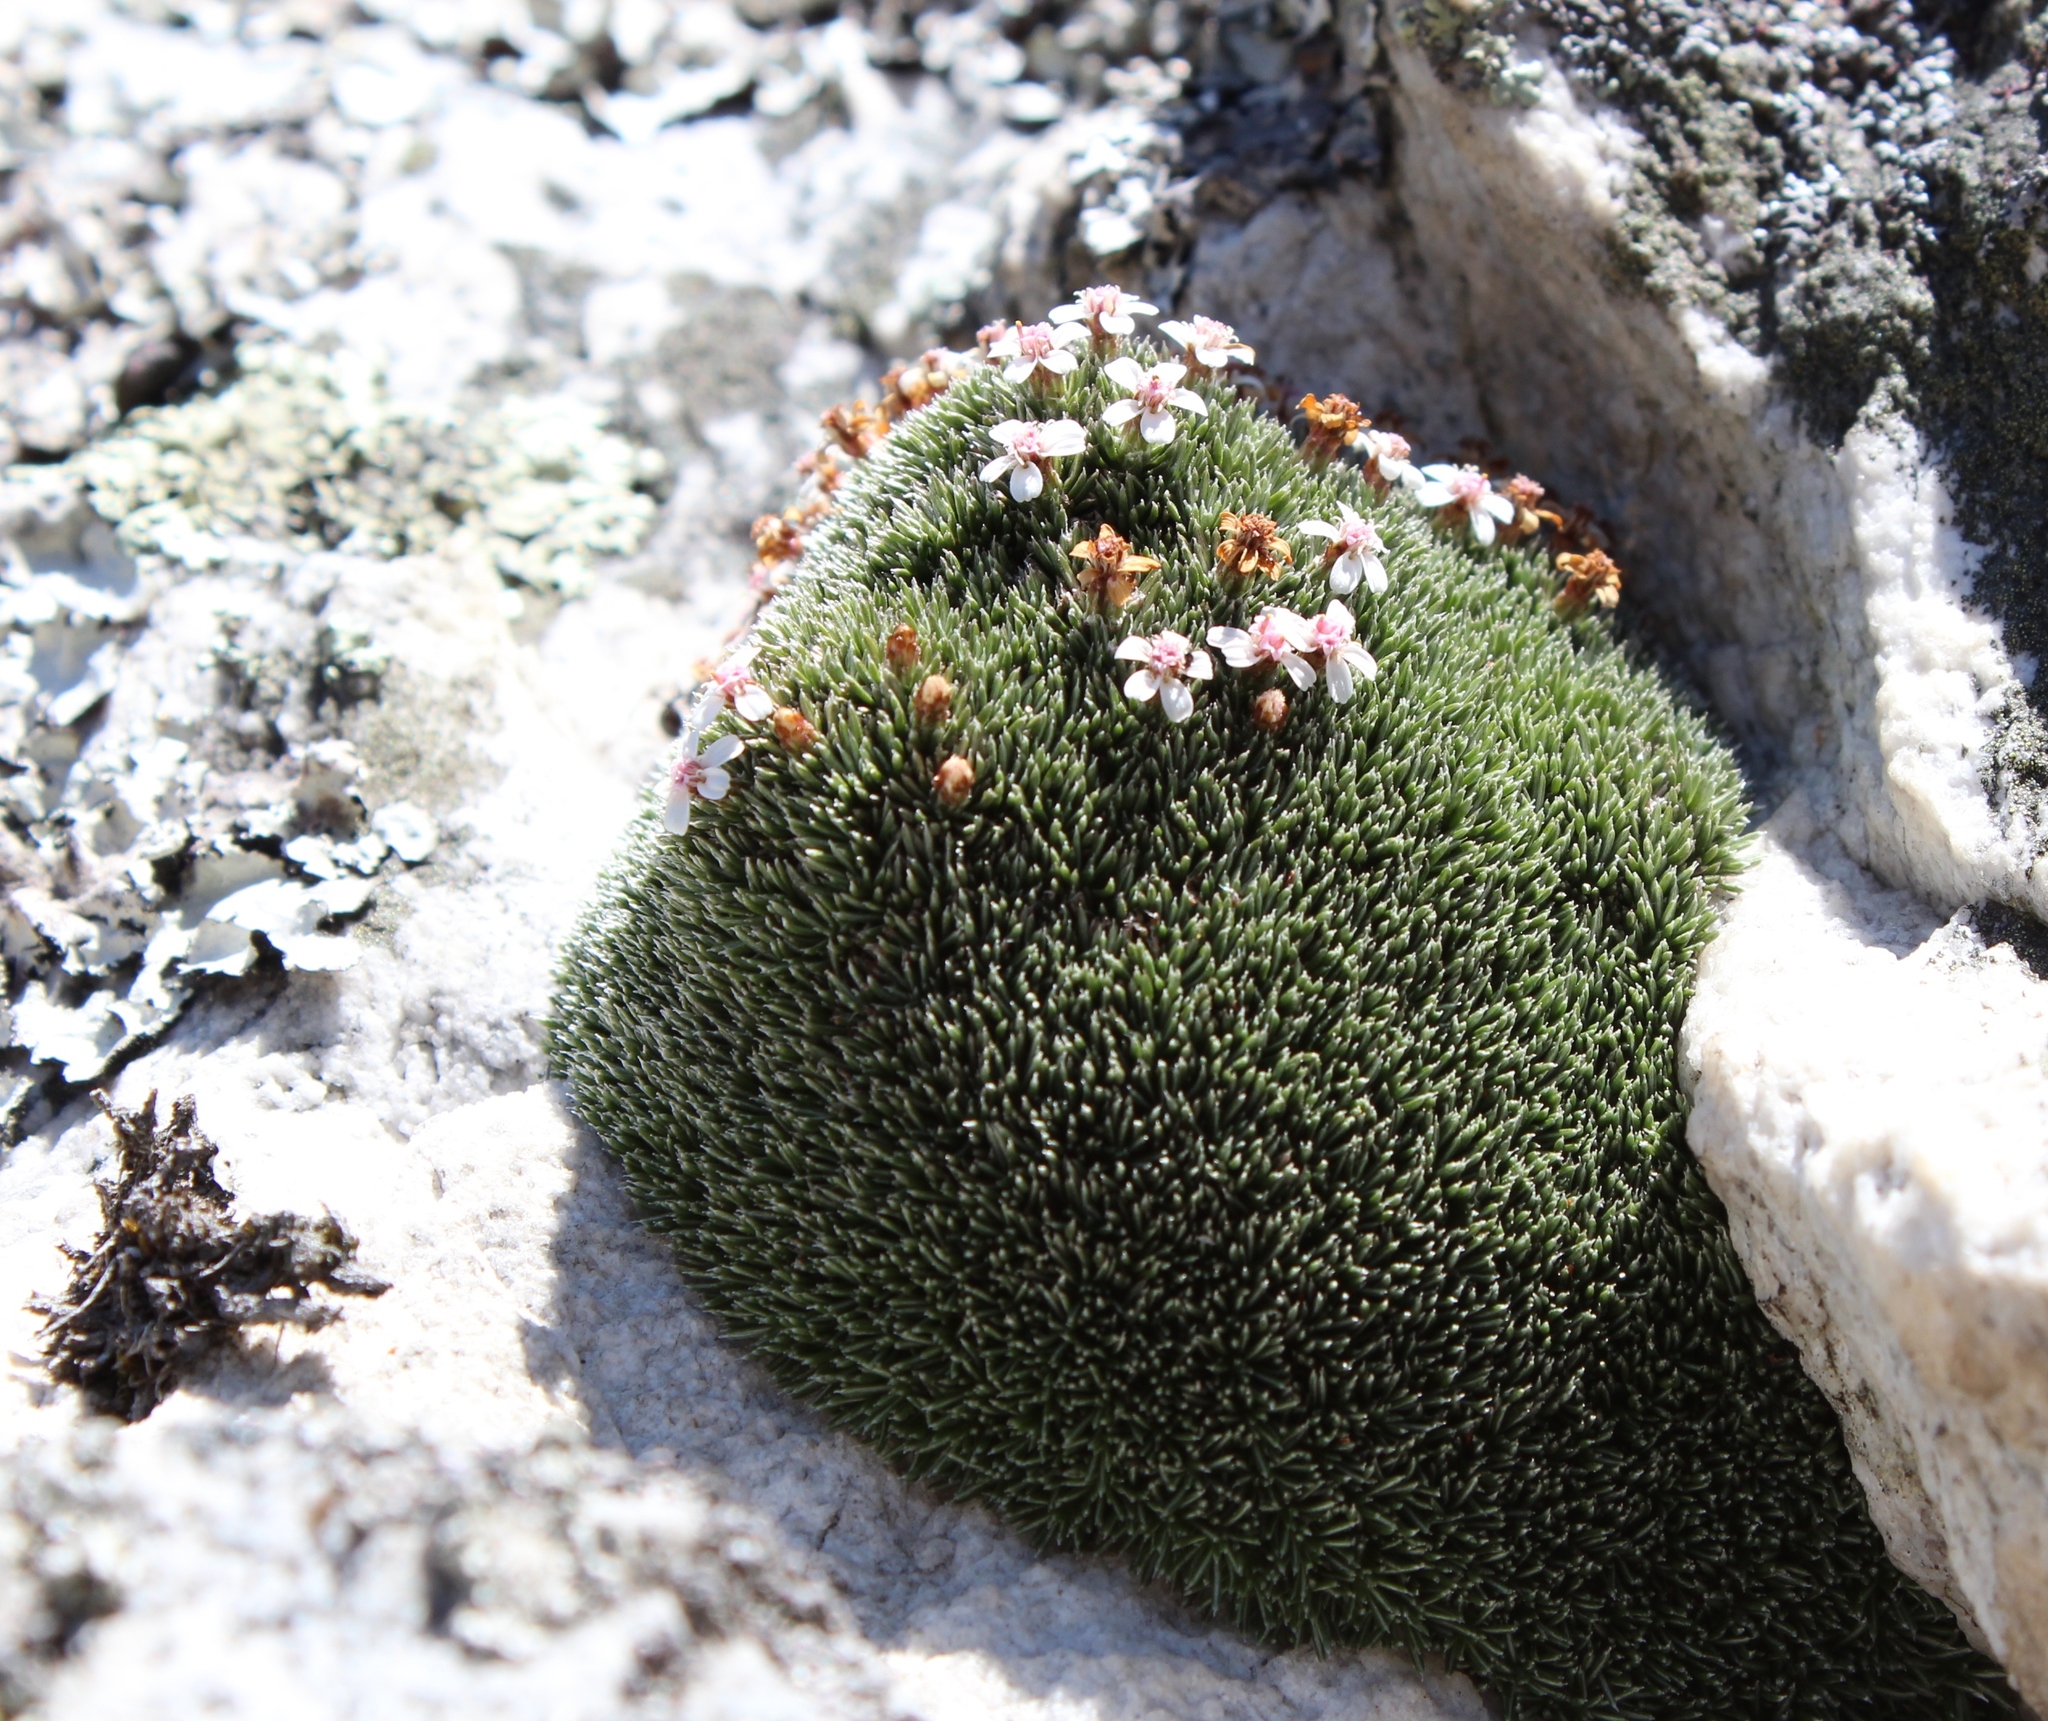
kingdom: Plantae
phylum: Tracheophyta
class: Magnoliopsida
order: Asterales
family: Asteraceae
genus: Muscosomorphe
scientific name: Muscosomorphe aretioides
